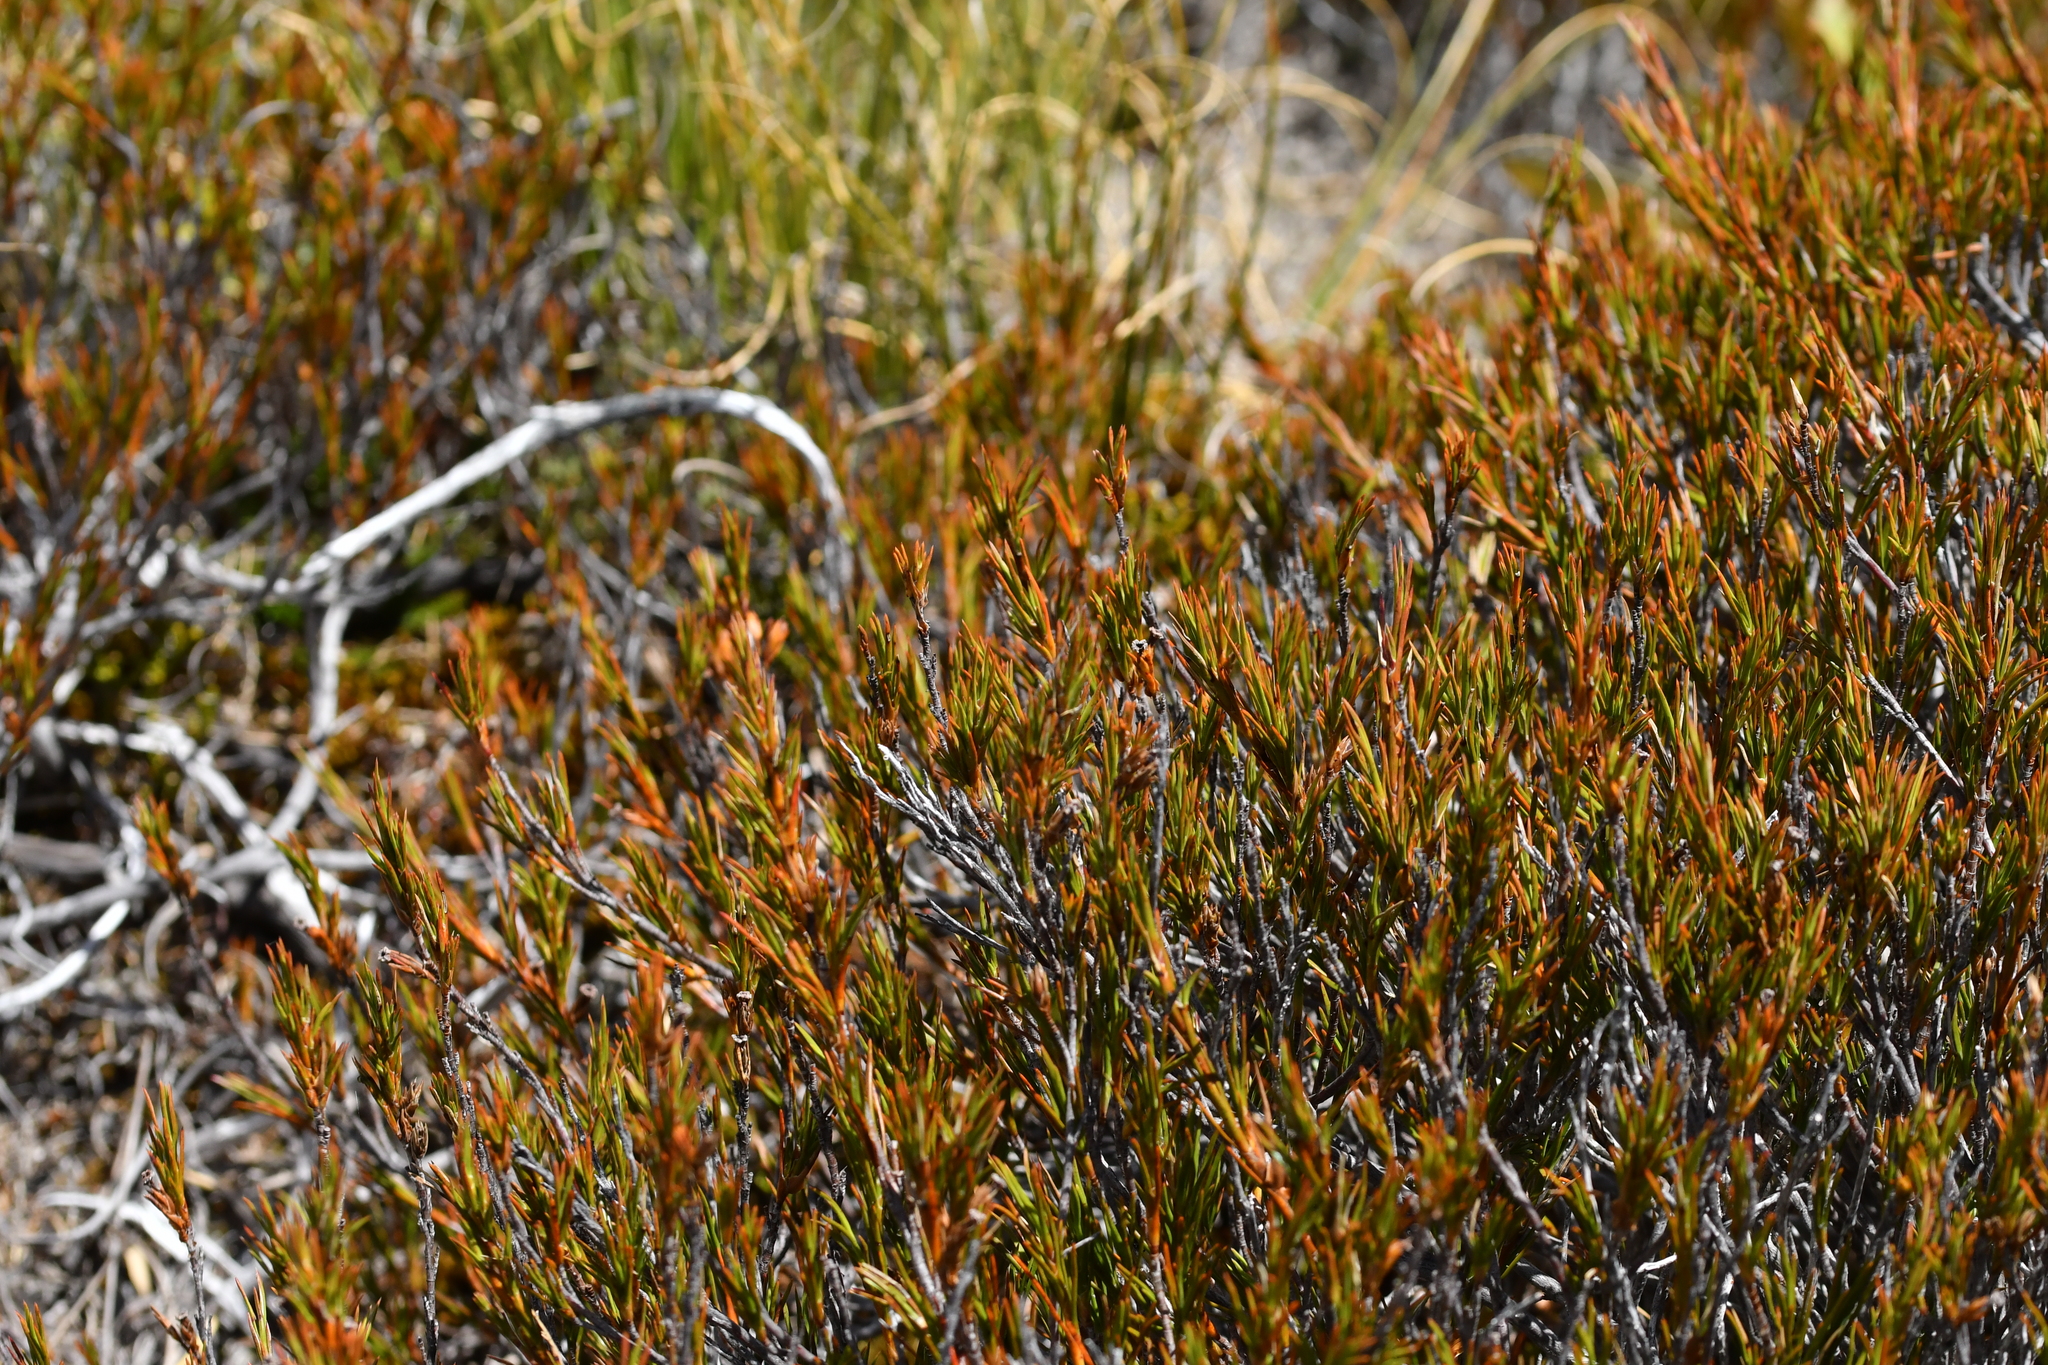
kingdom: Plantae
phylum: Tracheophyta
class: Magnoliopsida
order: Ericales
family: Ericaceae
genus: Dracophyllum
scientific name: Dracophyllum rosmarinifolium
